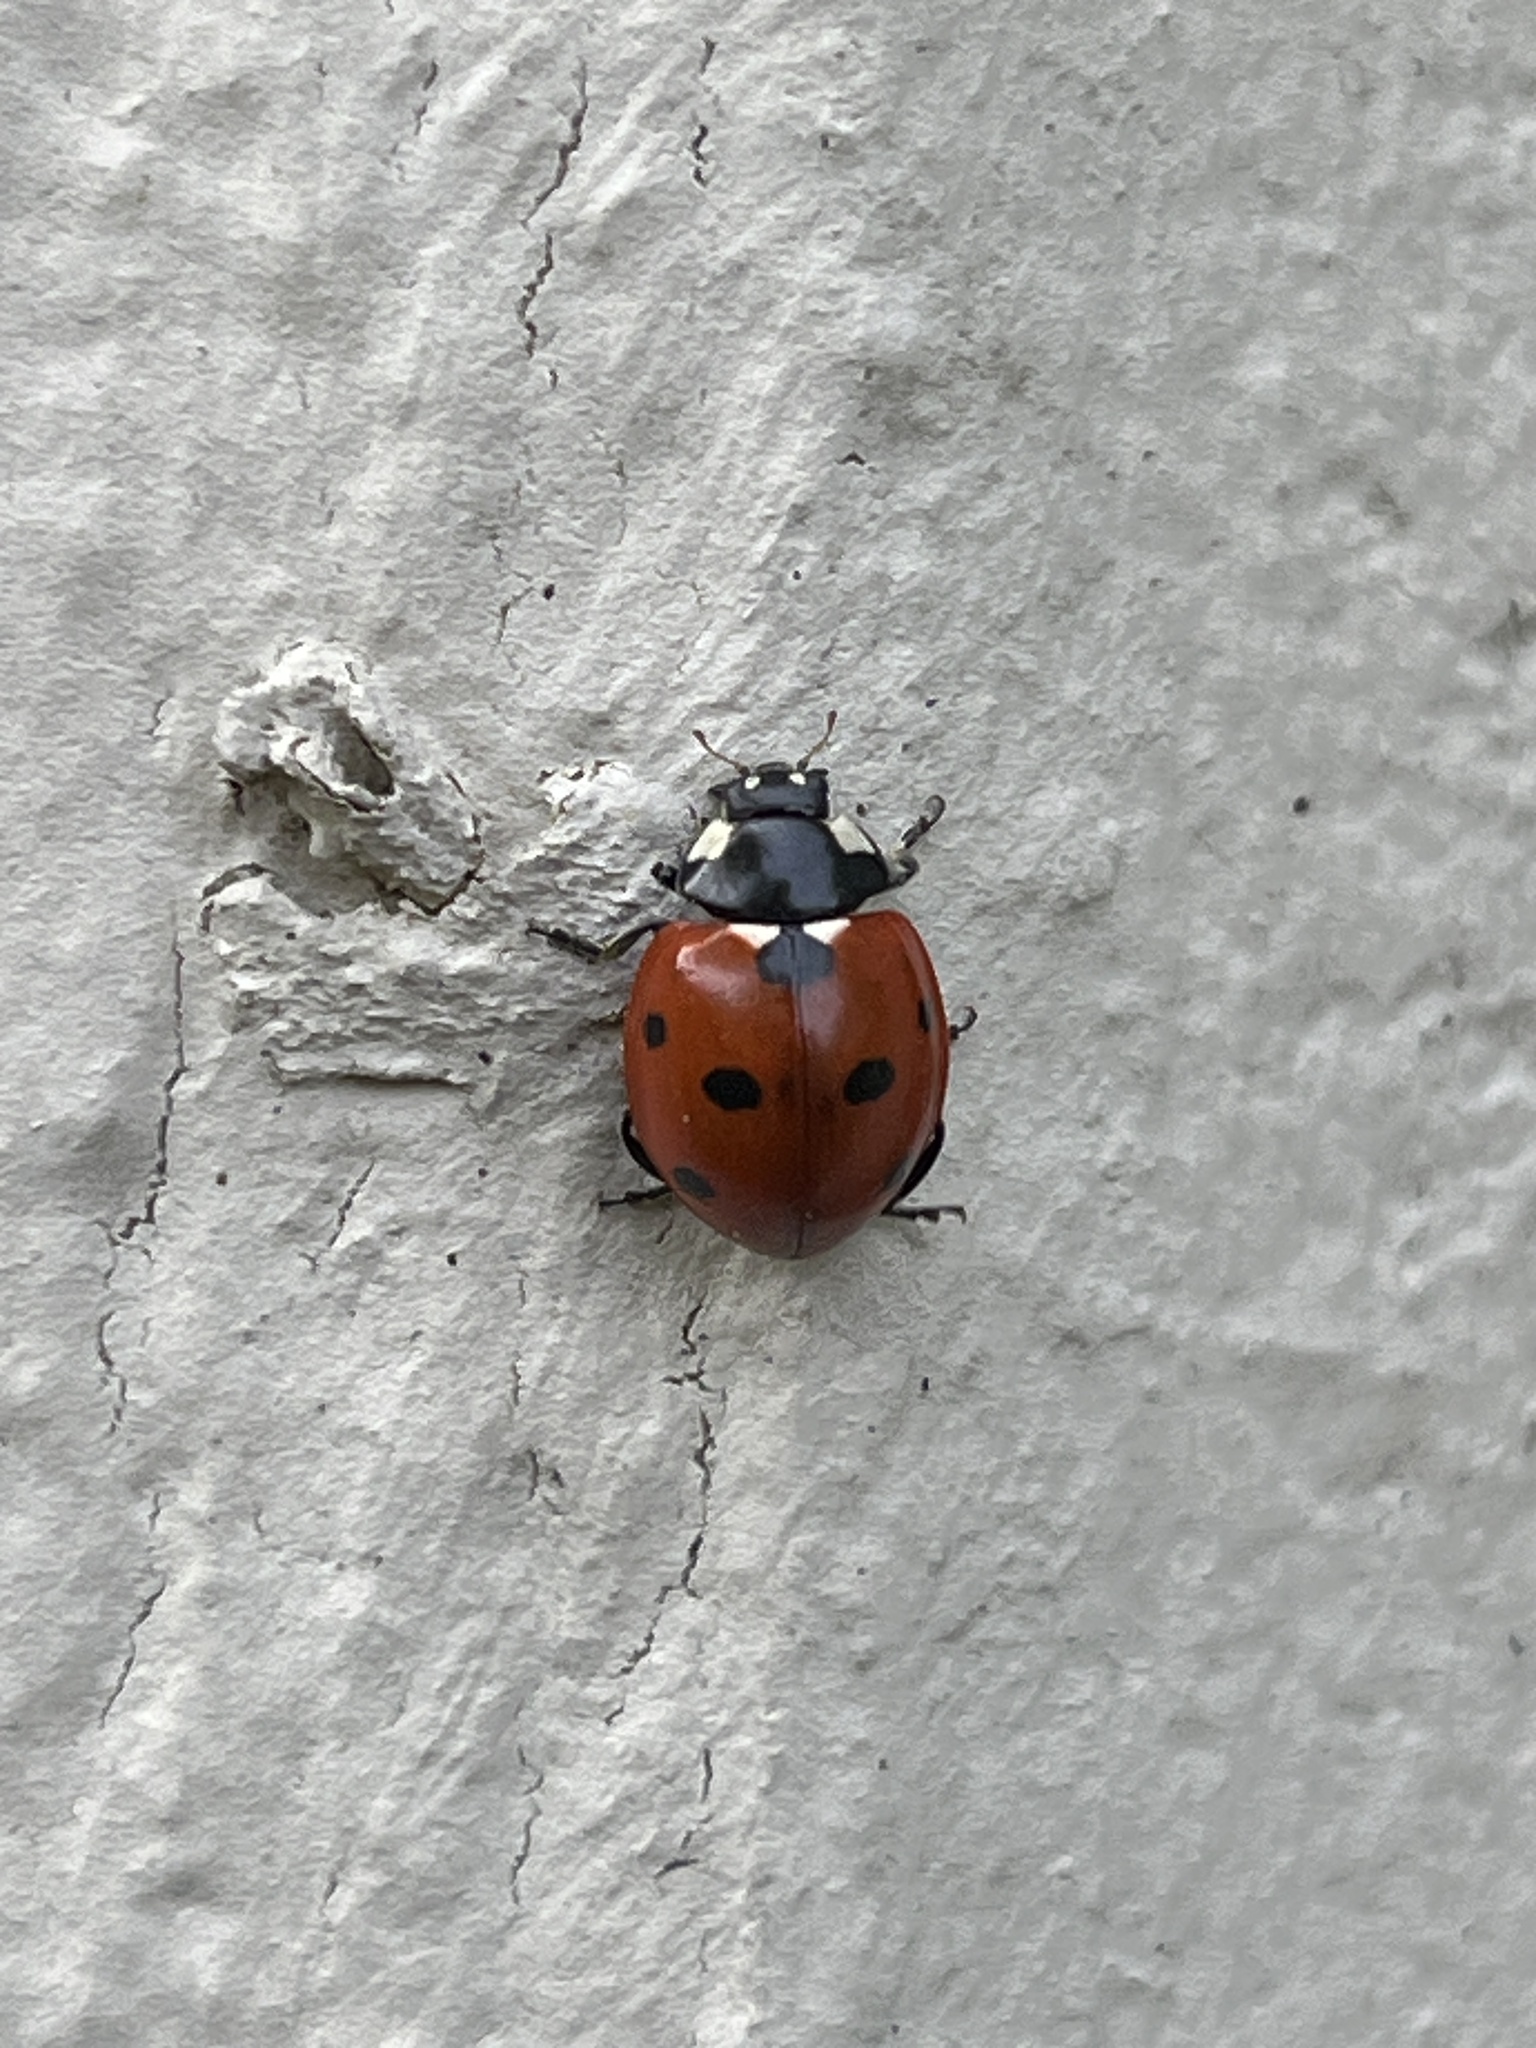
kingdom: Animalia
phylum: Arthropoda
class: Insecta
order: Coleoptera
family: Coccinellidae
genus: Coccinella
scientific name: Coccinella septempunctata
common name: Sevenspotted lady beetle
